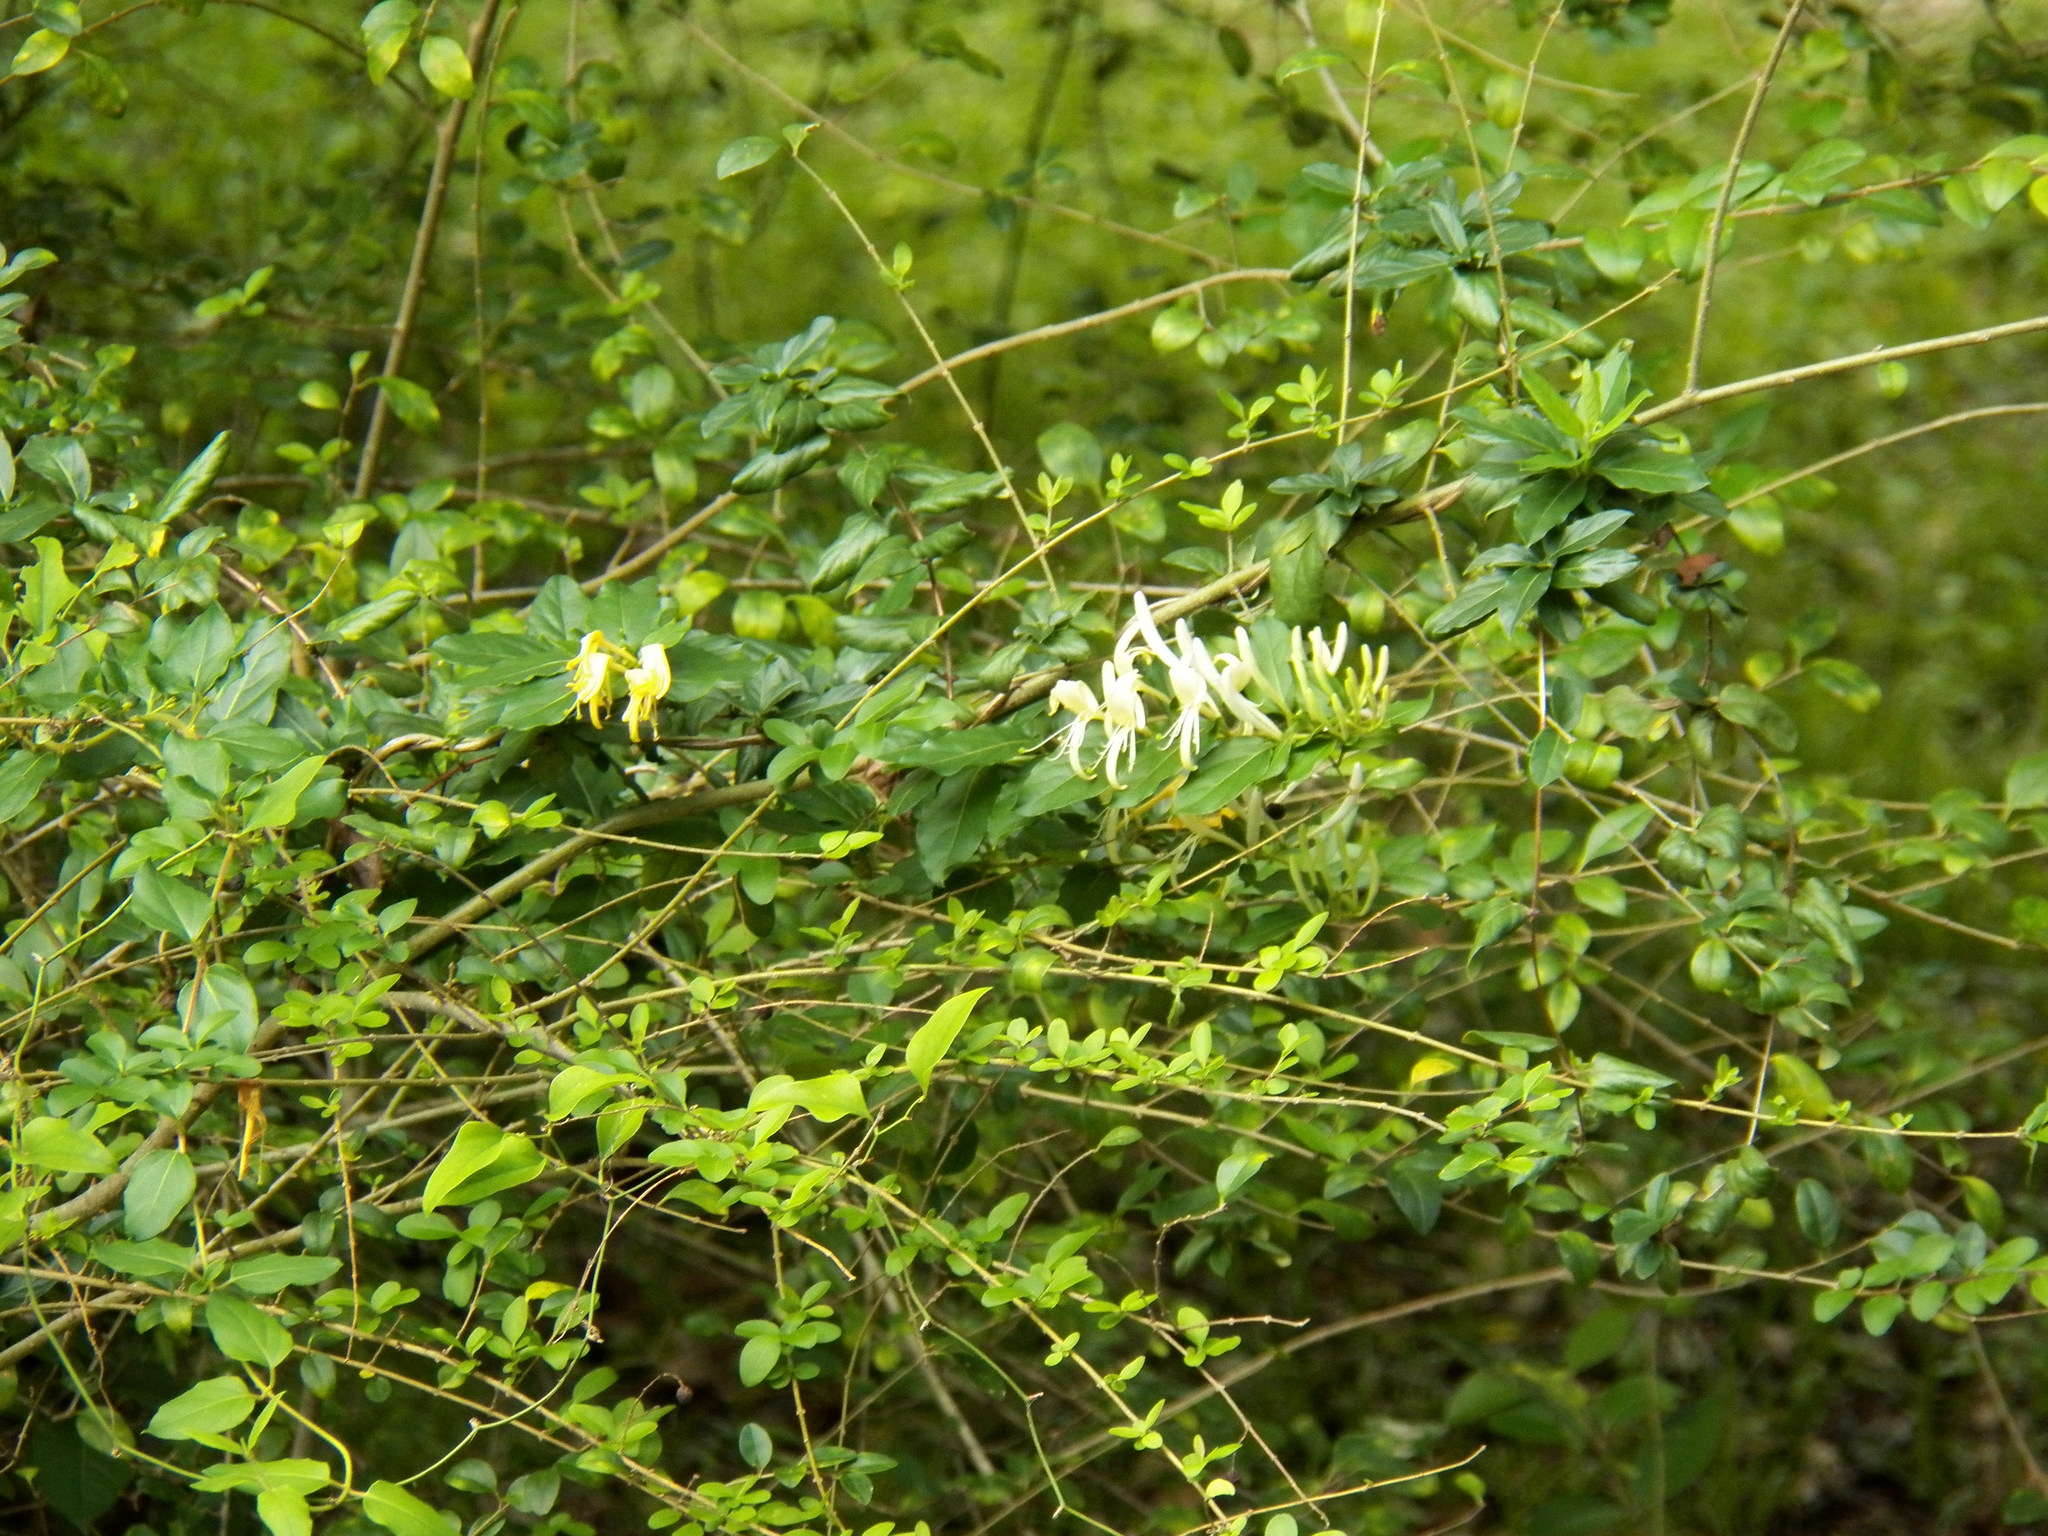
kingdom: Plantae
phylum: Tracheophyta
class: Magnoliopsida
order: Dipsacales
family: Caprifoliaceae
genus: Lonicera
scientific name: Lonicera japonica
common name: Japanese honeysuckle
